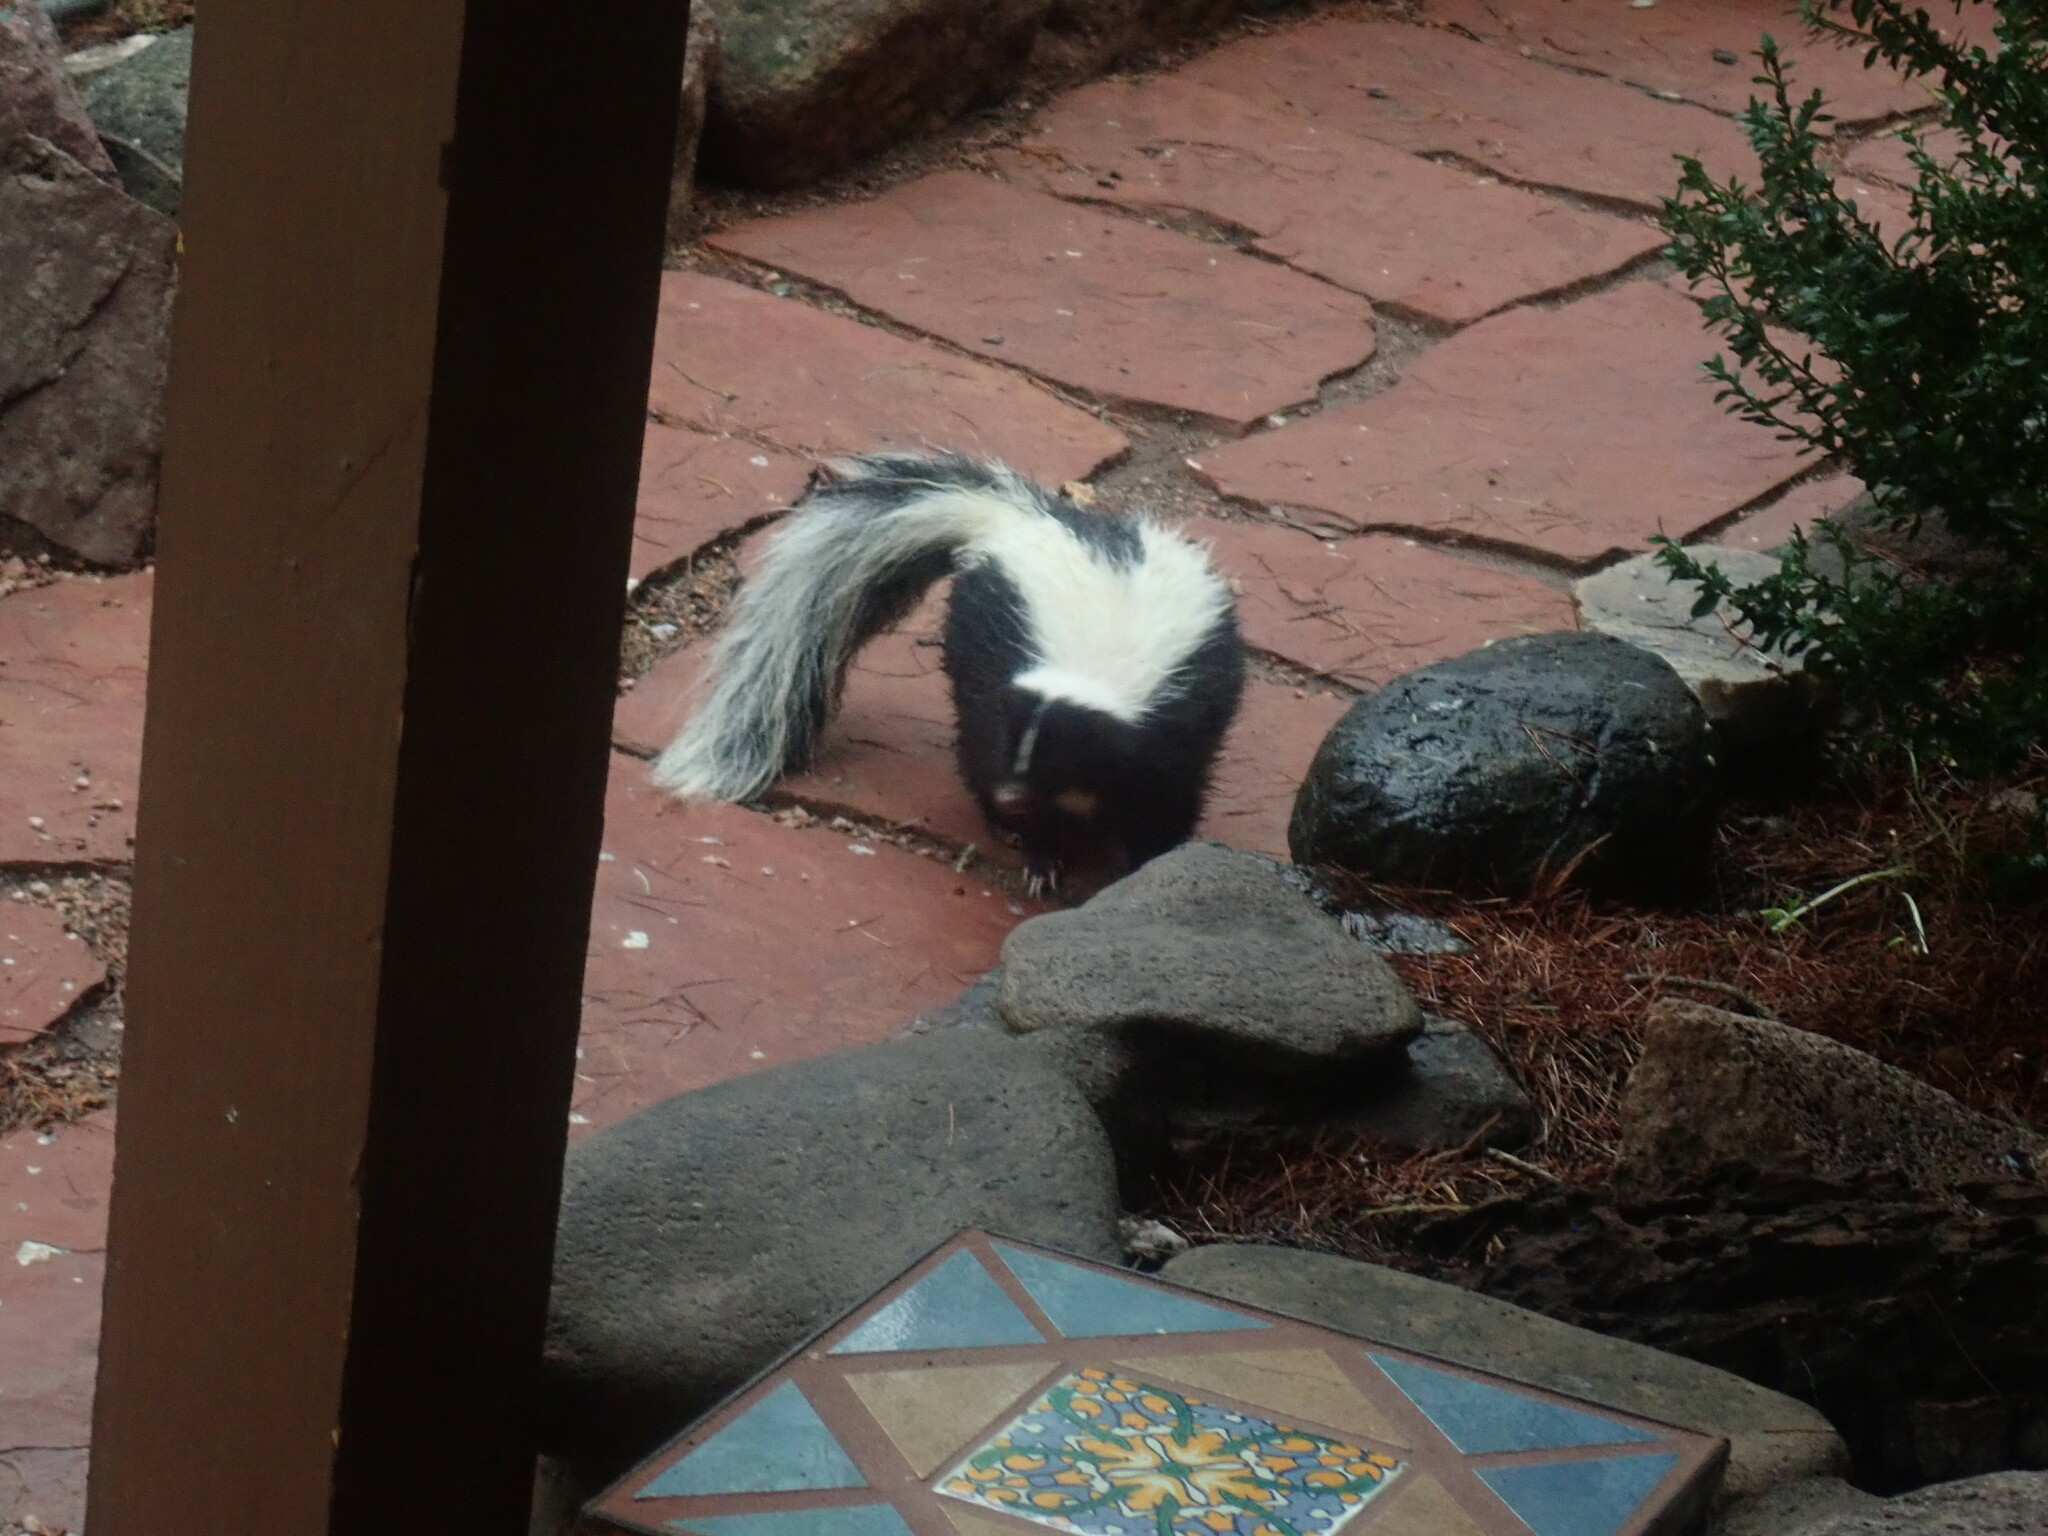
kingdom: Animalia
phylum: Chordata
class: Mammalia
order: Carnivora
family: Mephitidae
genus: Mephitis
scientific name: Mephitis mephitis
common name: Striped skunk
